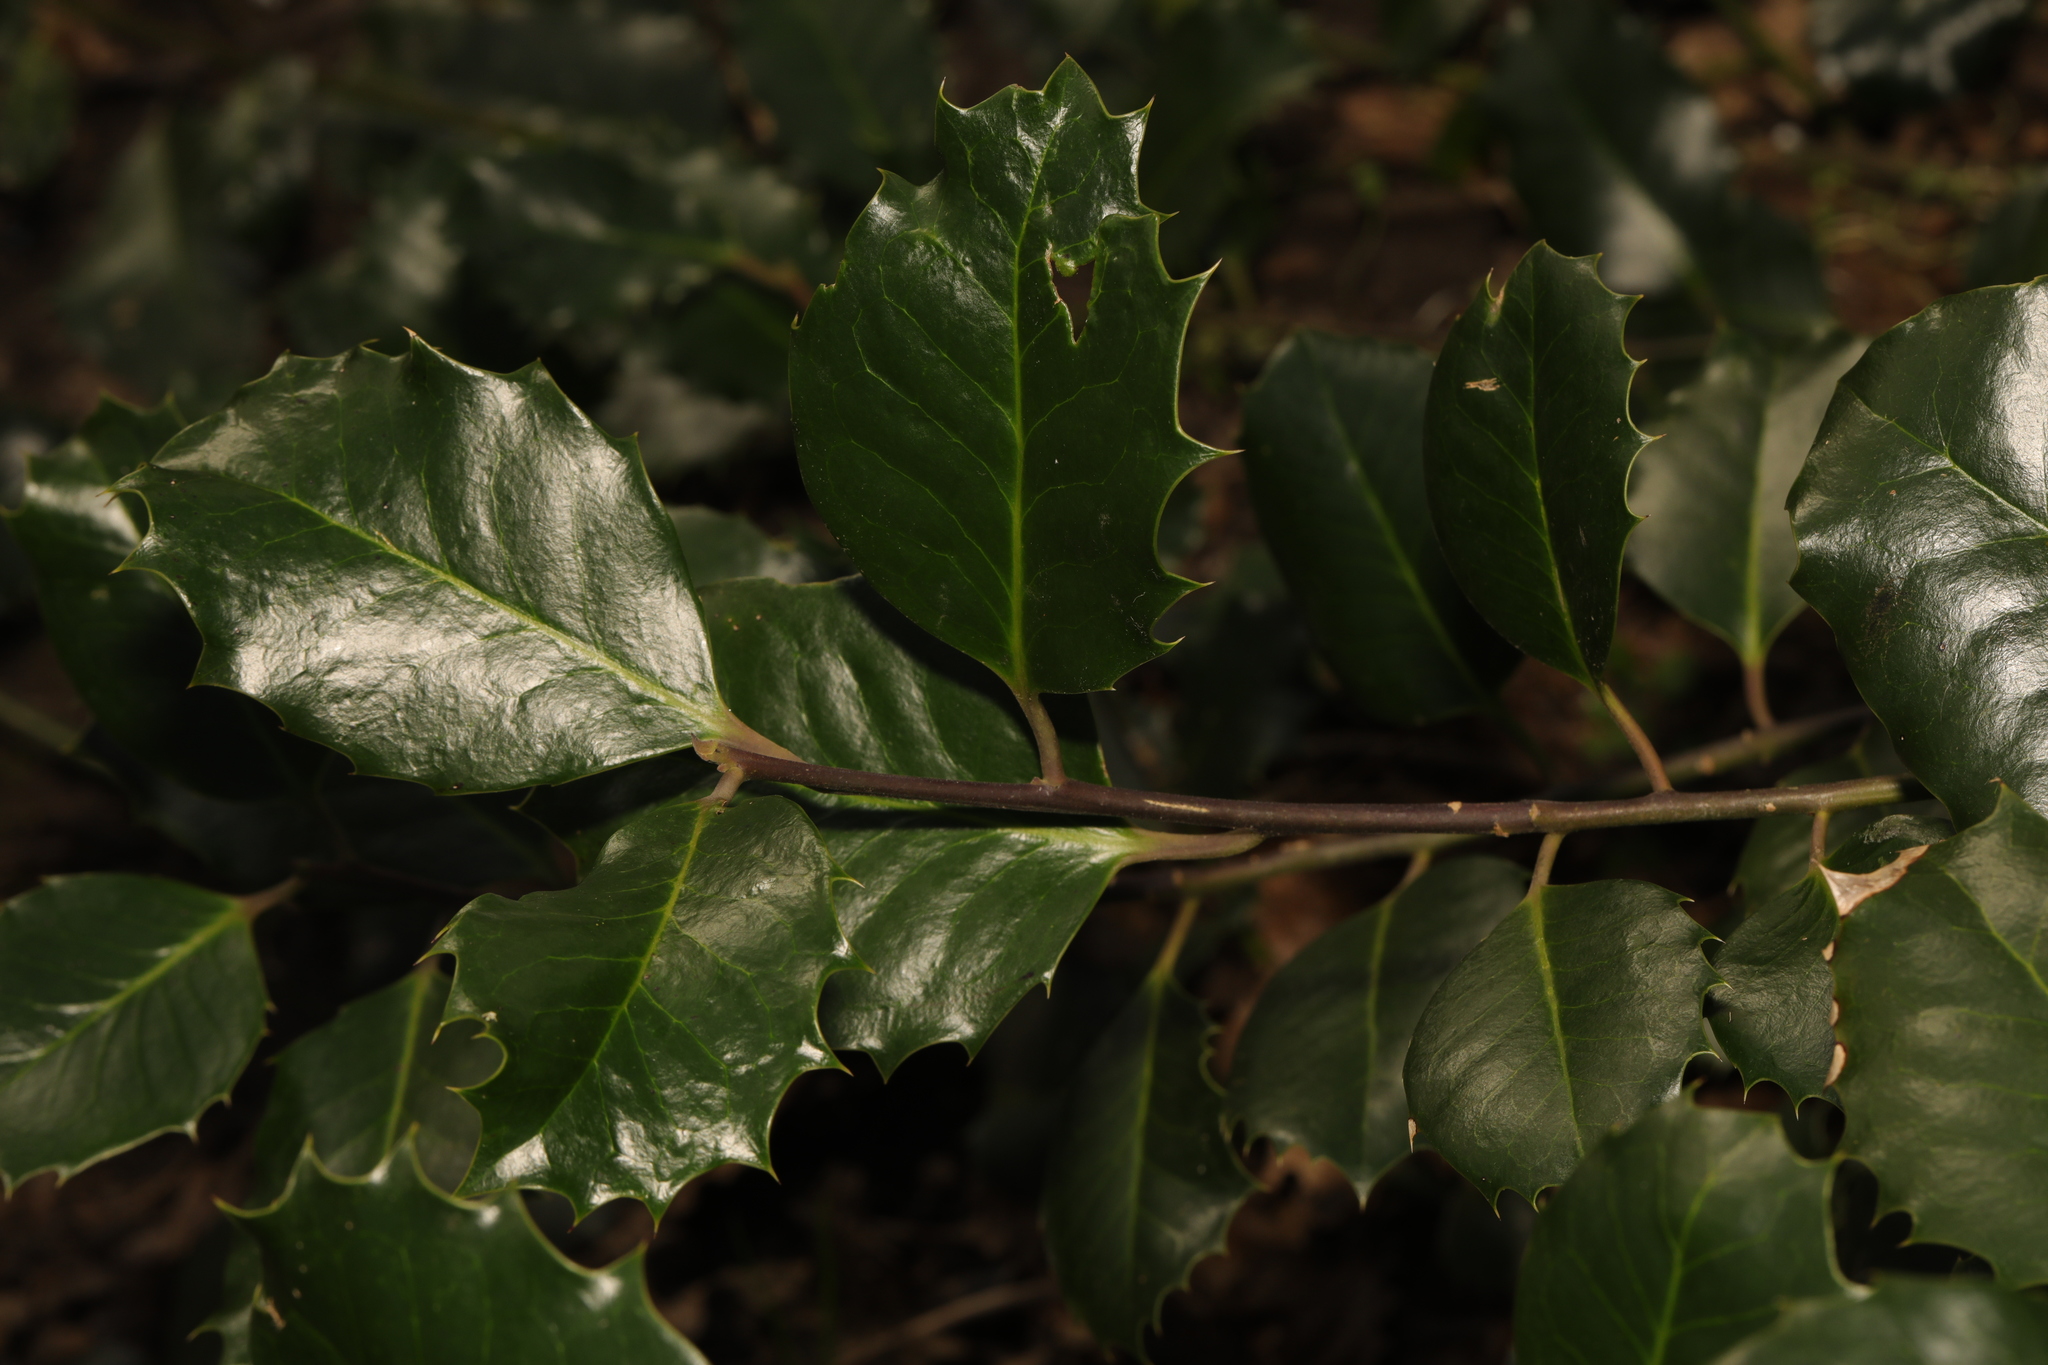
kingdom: Plantae
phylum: Tracheophyta
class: Magnoliopsida
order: Aquifoliales
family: Aquifoliaceae
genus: Ilex
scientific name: Ilex aquifolium
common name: English holly
